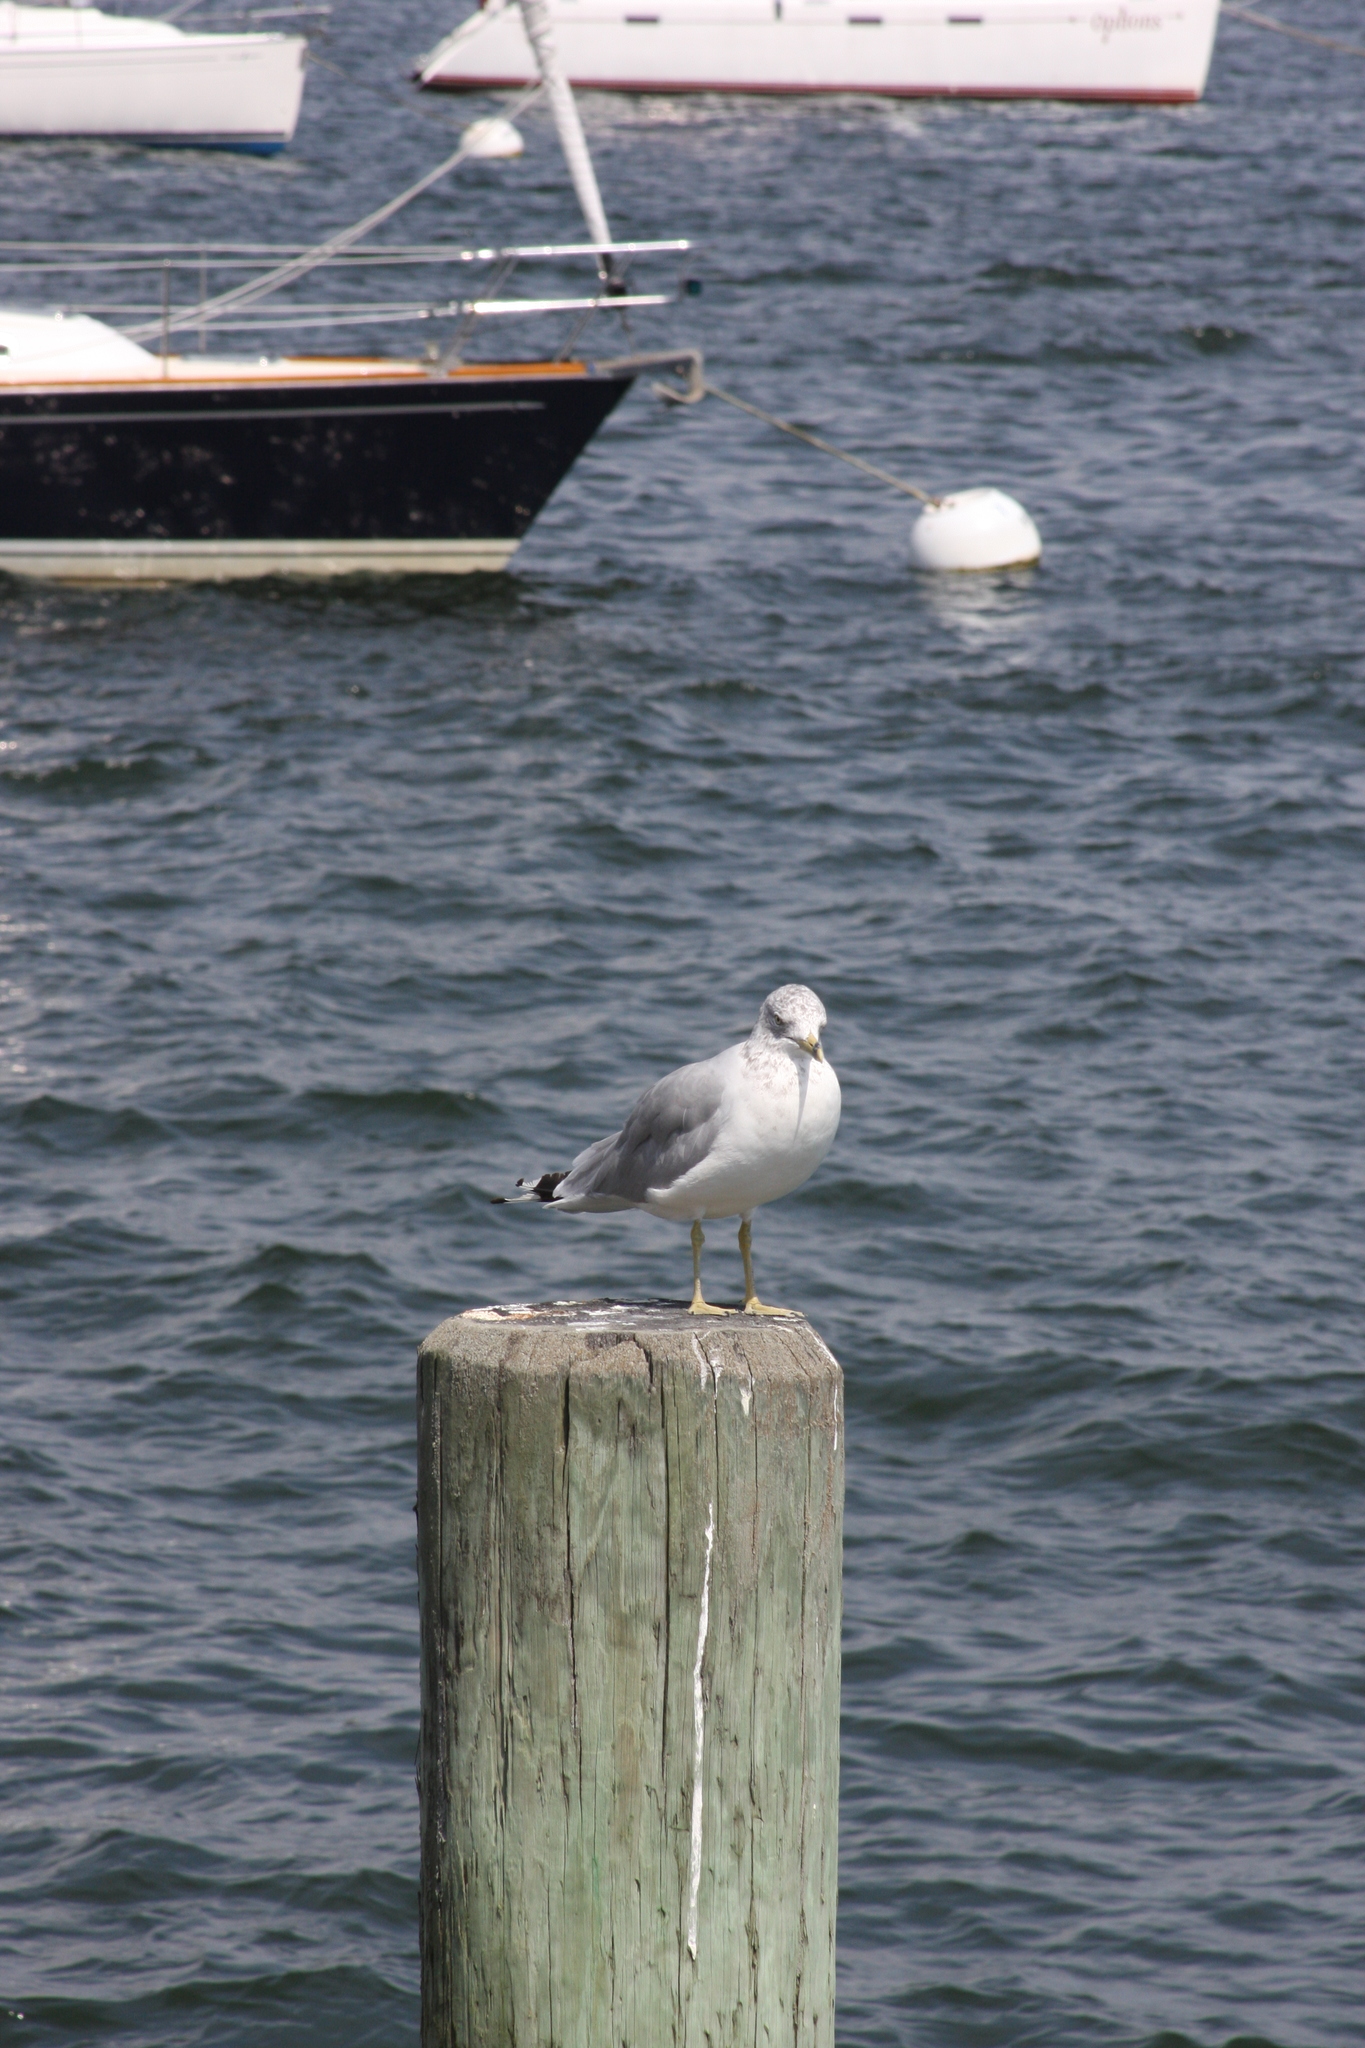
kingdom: Animalia
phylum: Chordata
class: Aves
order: Charadriiformes
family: Laridae
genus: Larus
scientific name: Larus delawarensis
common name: Ring-billed gull
